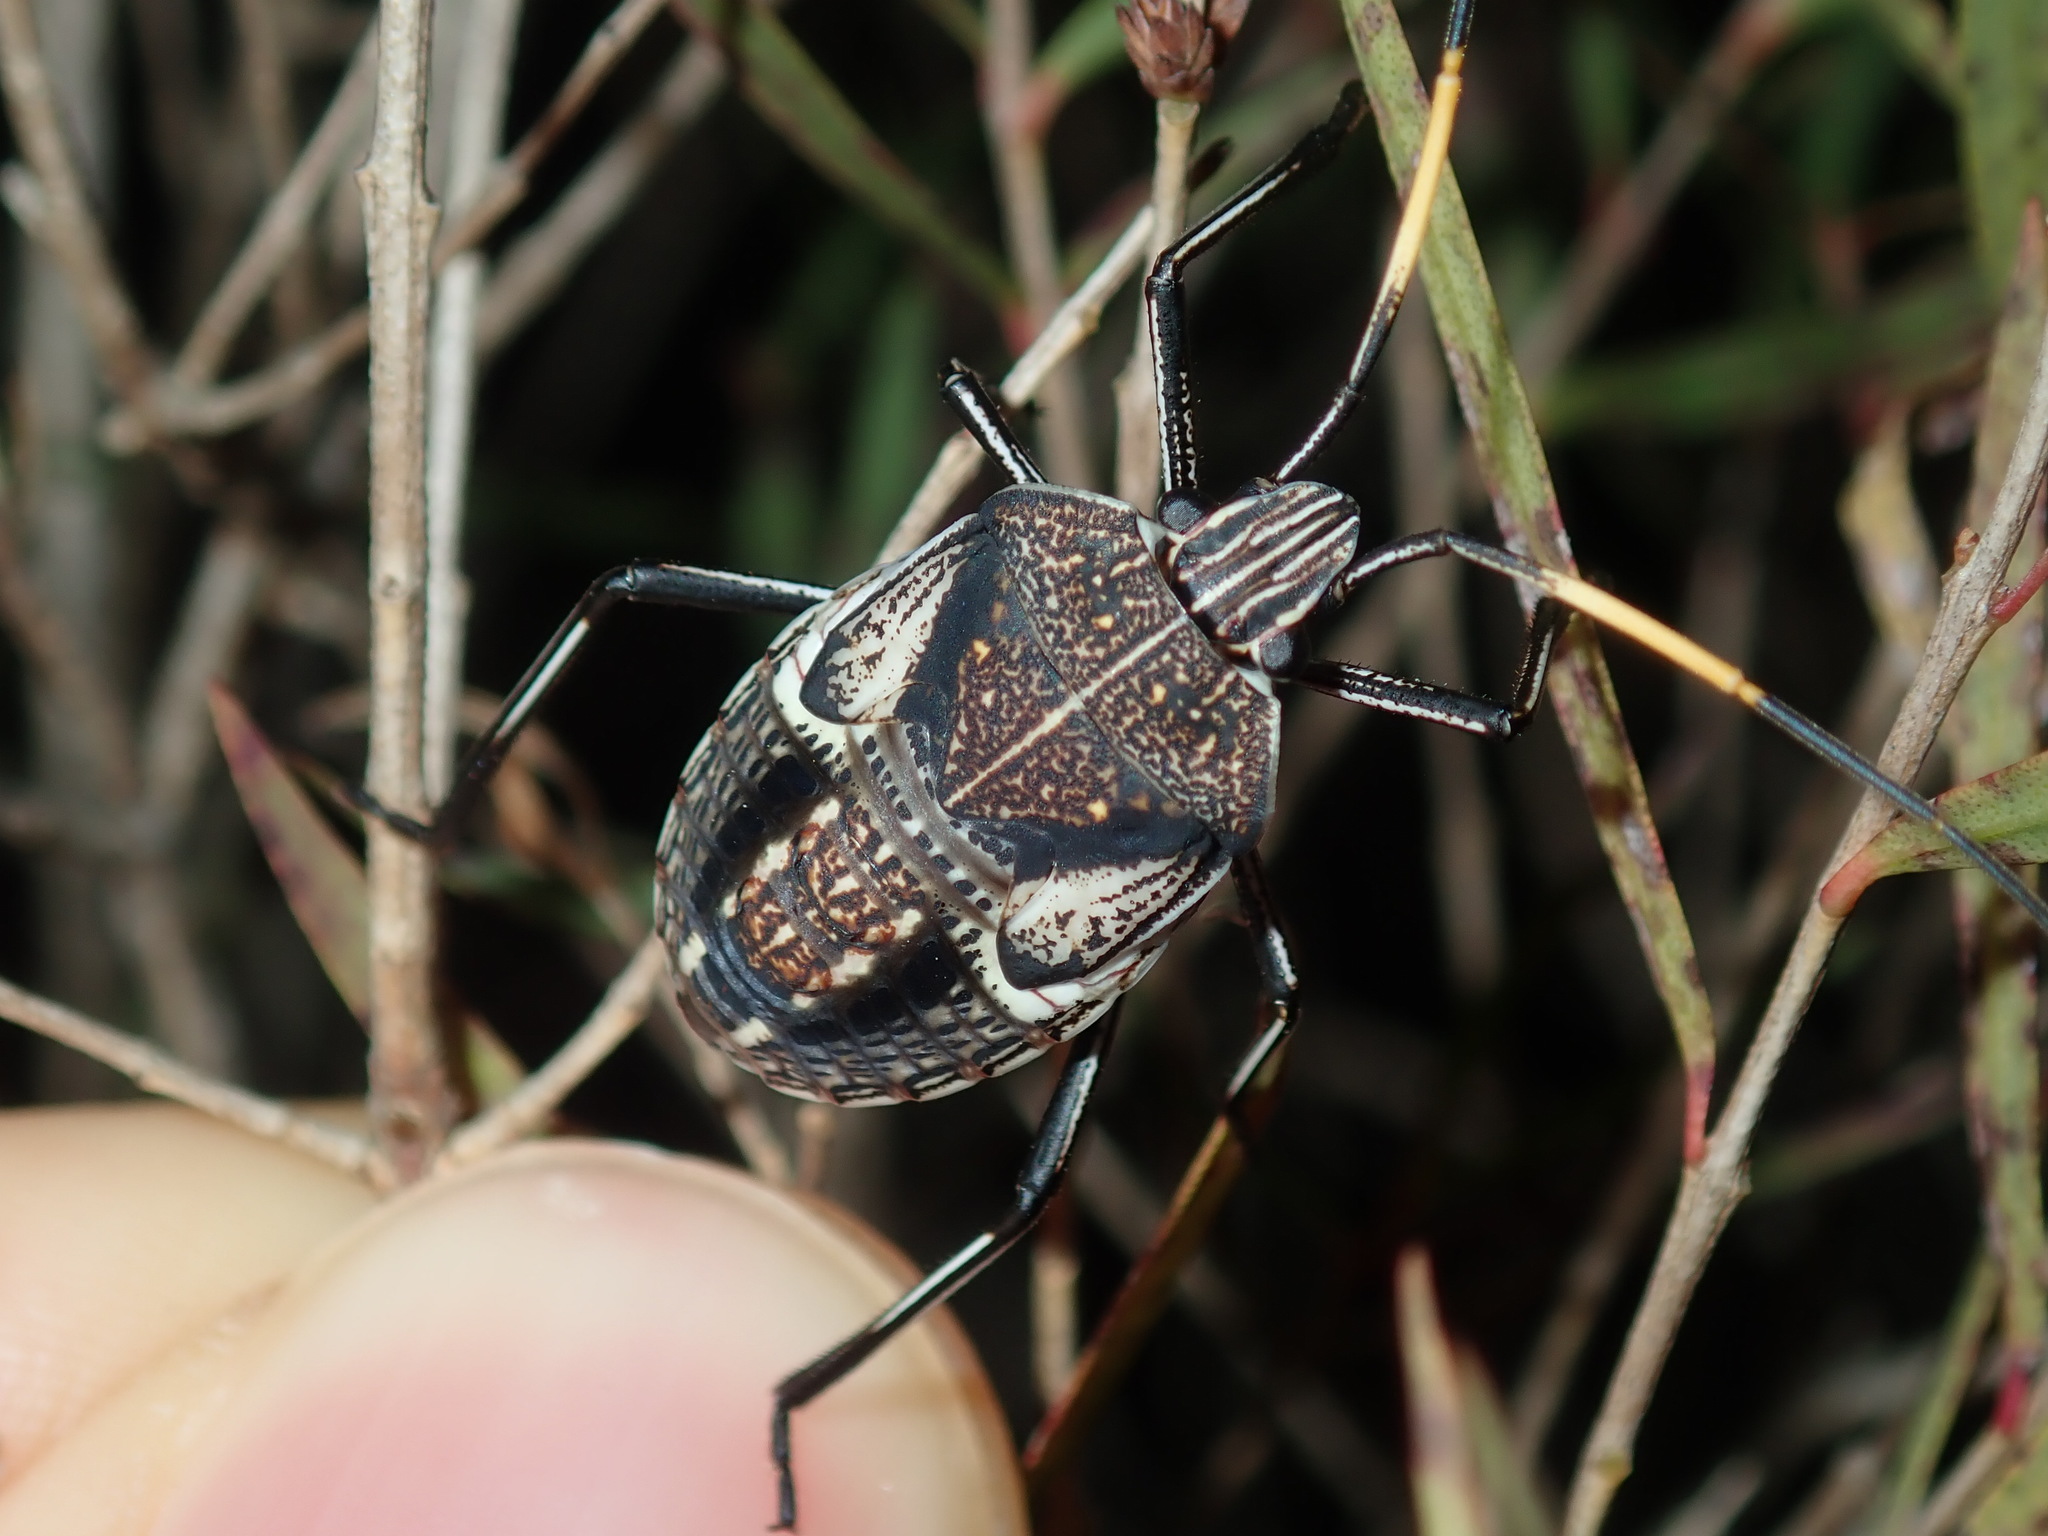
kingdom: Animalia
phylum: Arthropoda
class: Insecta
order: Hemiptera
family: Pentatomidae
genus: Poecilometis
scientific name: Poecilometis
